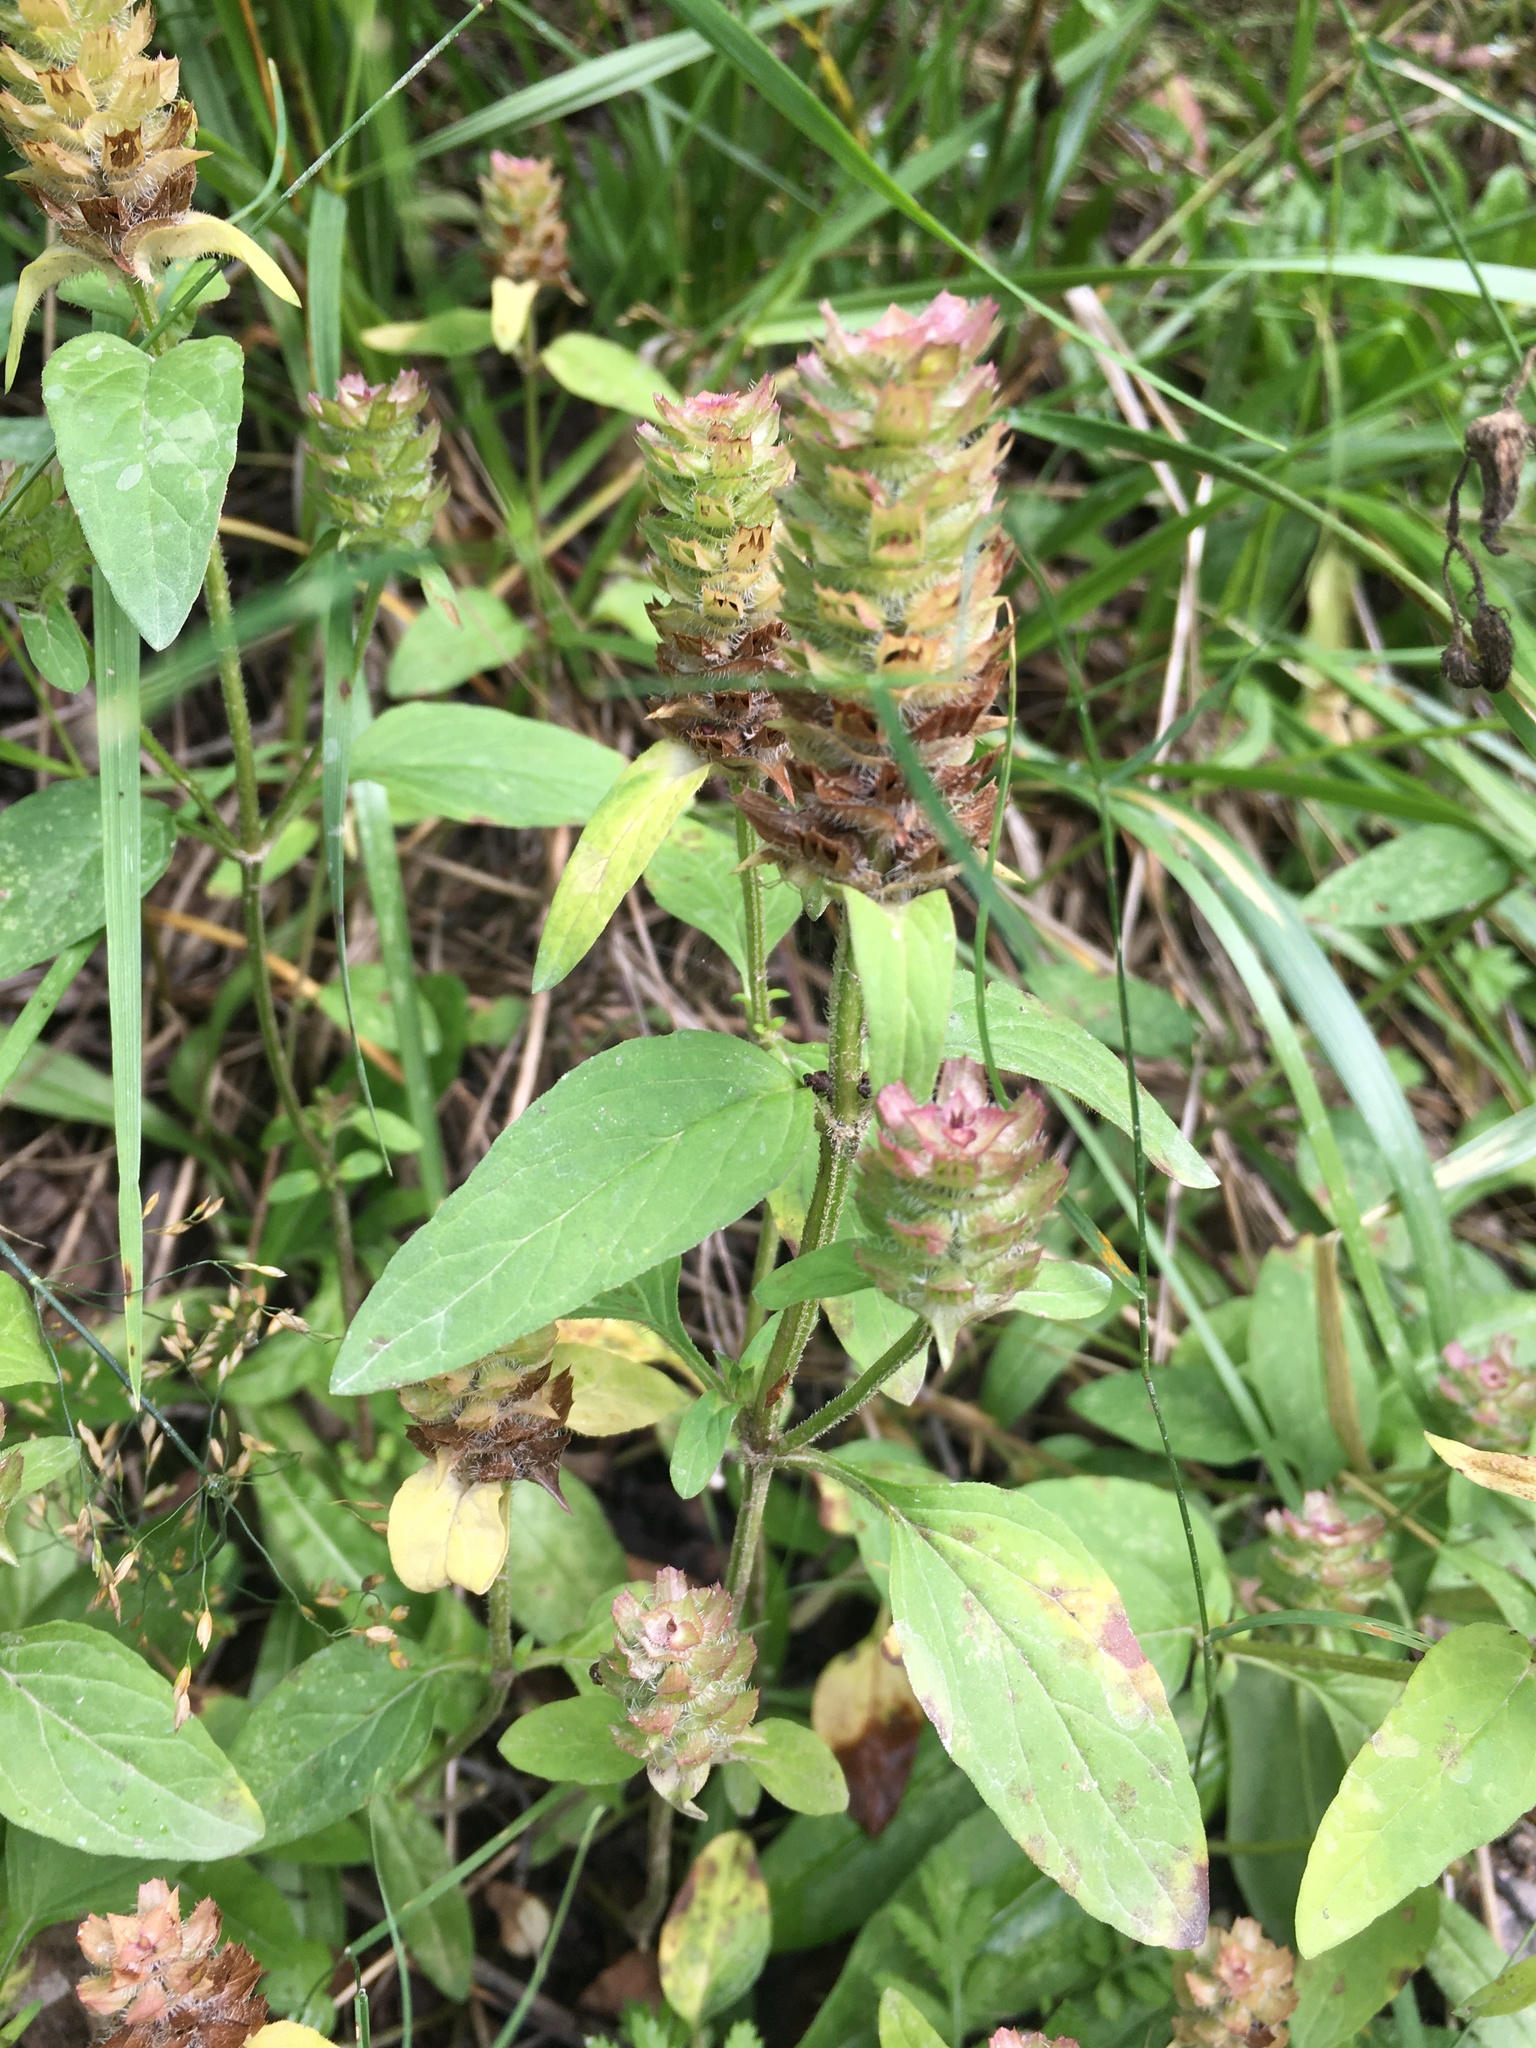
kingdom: Plantae
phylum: Tracheophyta
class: Magnoliopsida
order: Lamiales
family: Lamiaceae
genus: Prunella
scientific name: Prunella vulgaris
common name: Heal-all
